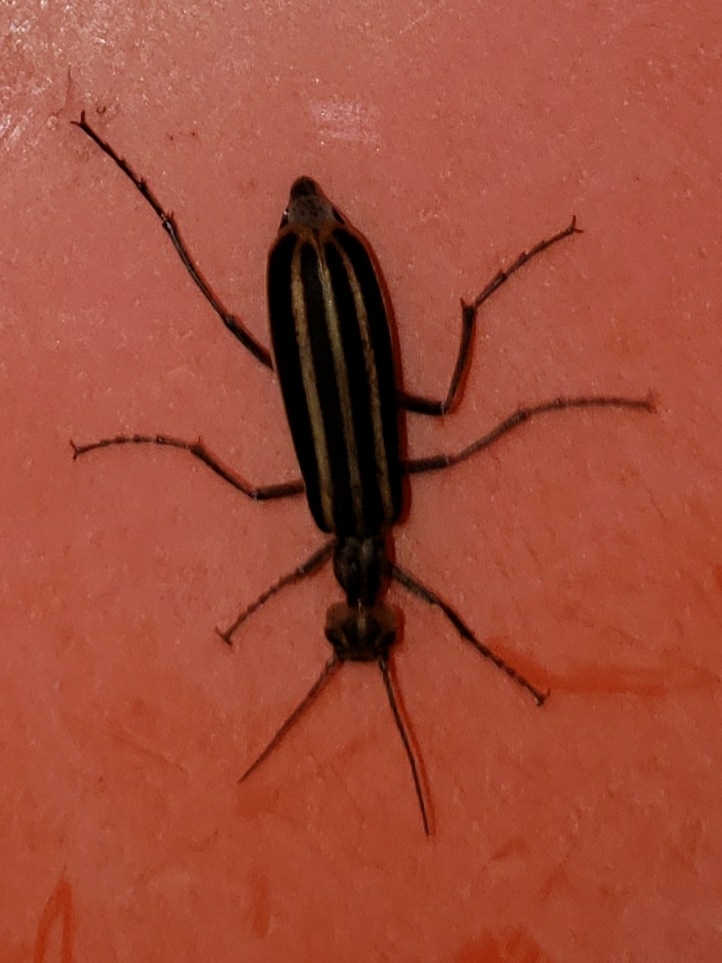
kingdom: Animalia
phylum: Arthropoda
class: Insecta
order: Coleoptera
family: Meloidae
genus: Epicauta
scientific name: Epicauta vittata
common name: Old-fashioned potato beetle
